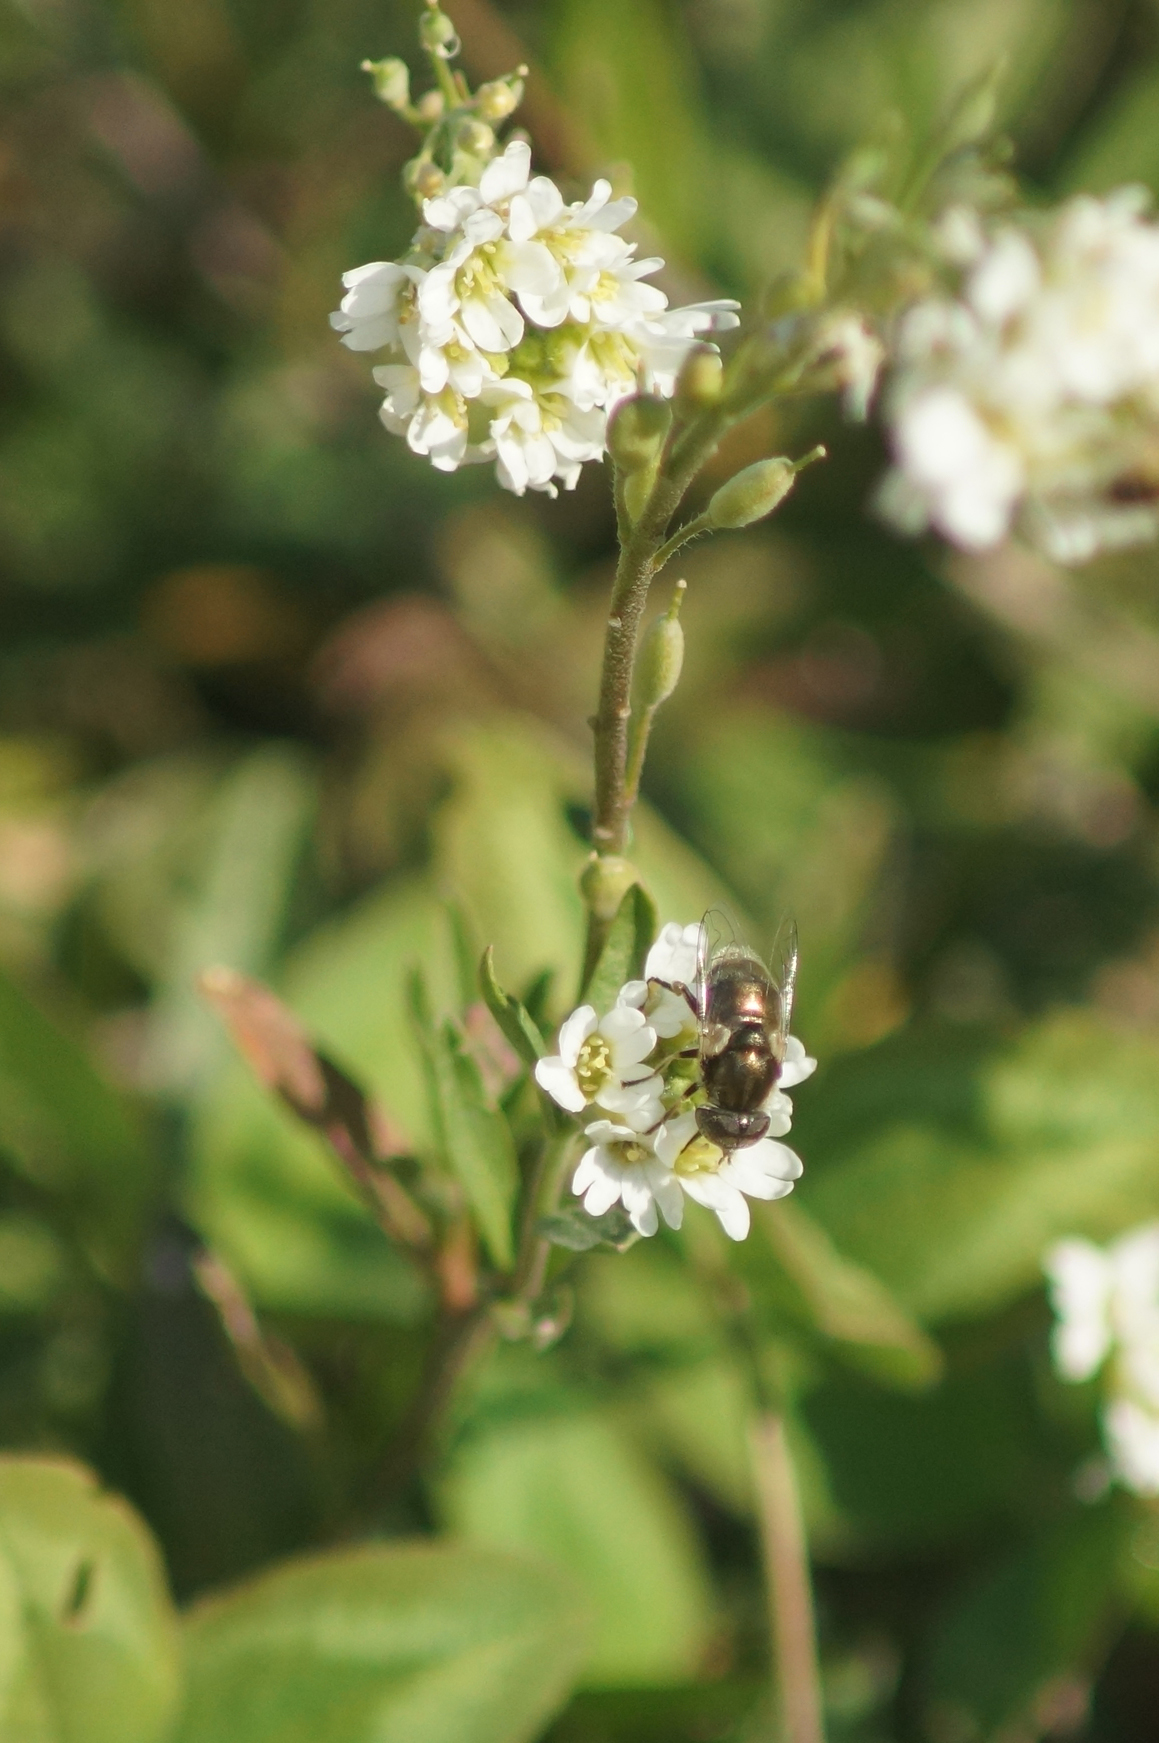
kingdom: Animalia
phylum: Arthropoda
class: Insecta
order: Diptera
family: Syrphidae
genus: Eristalinus
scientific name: Eristalinus aeneus
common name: Syrphid fly
